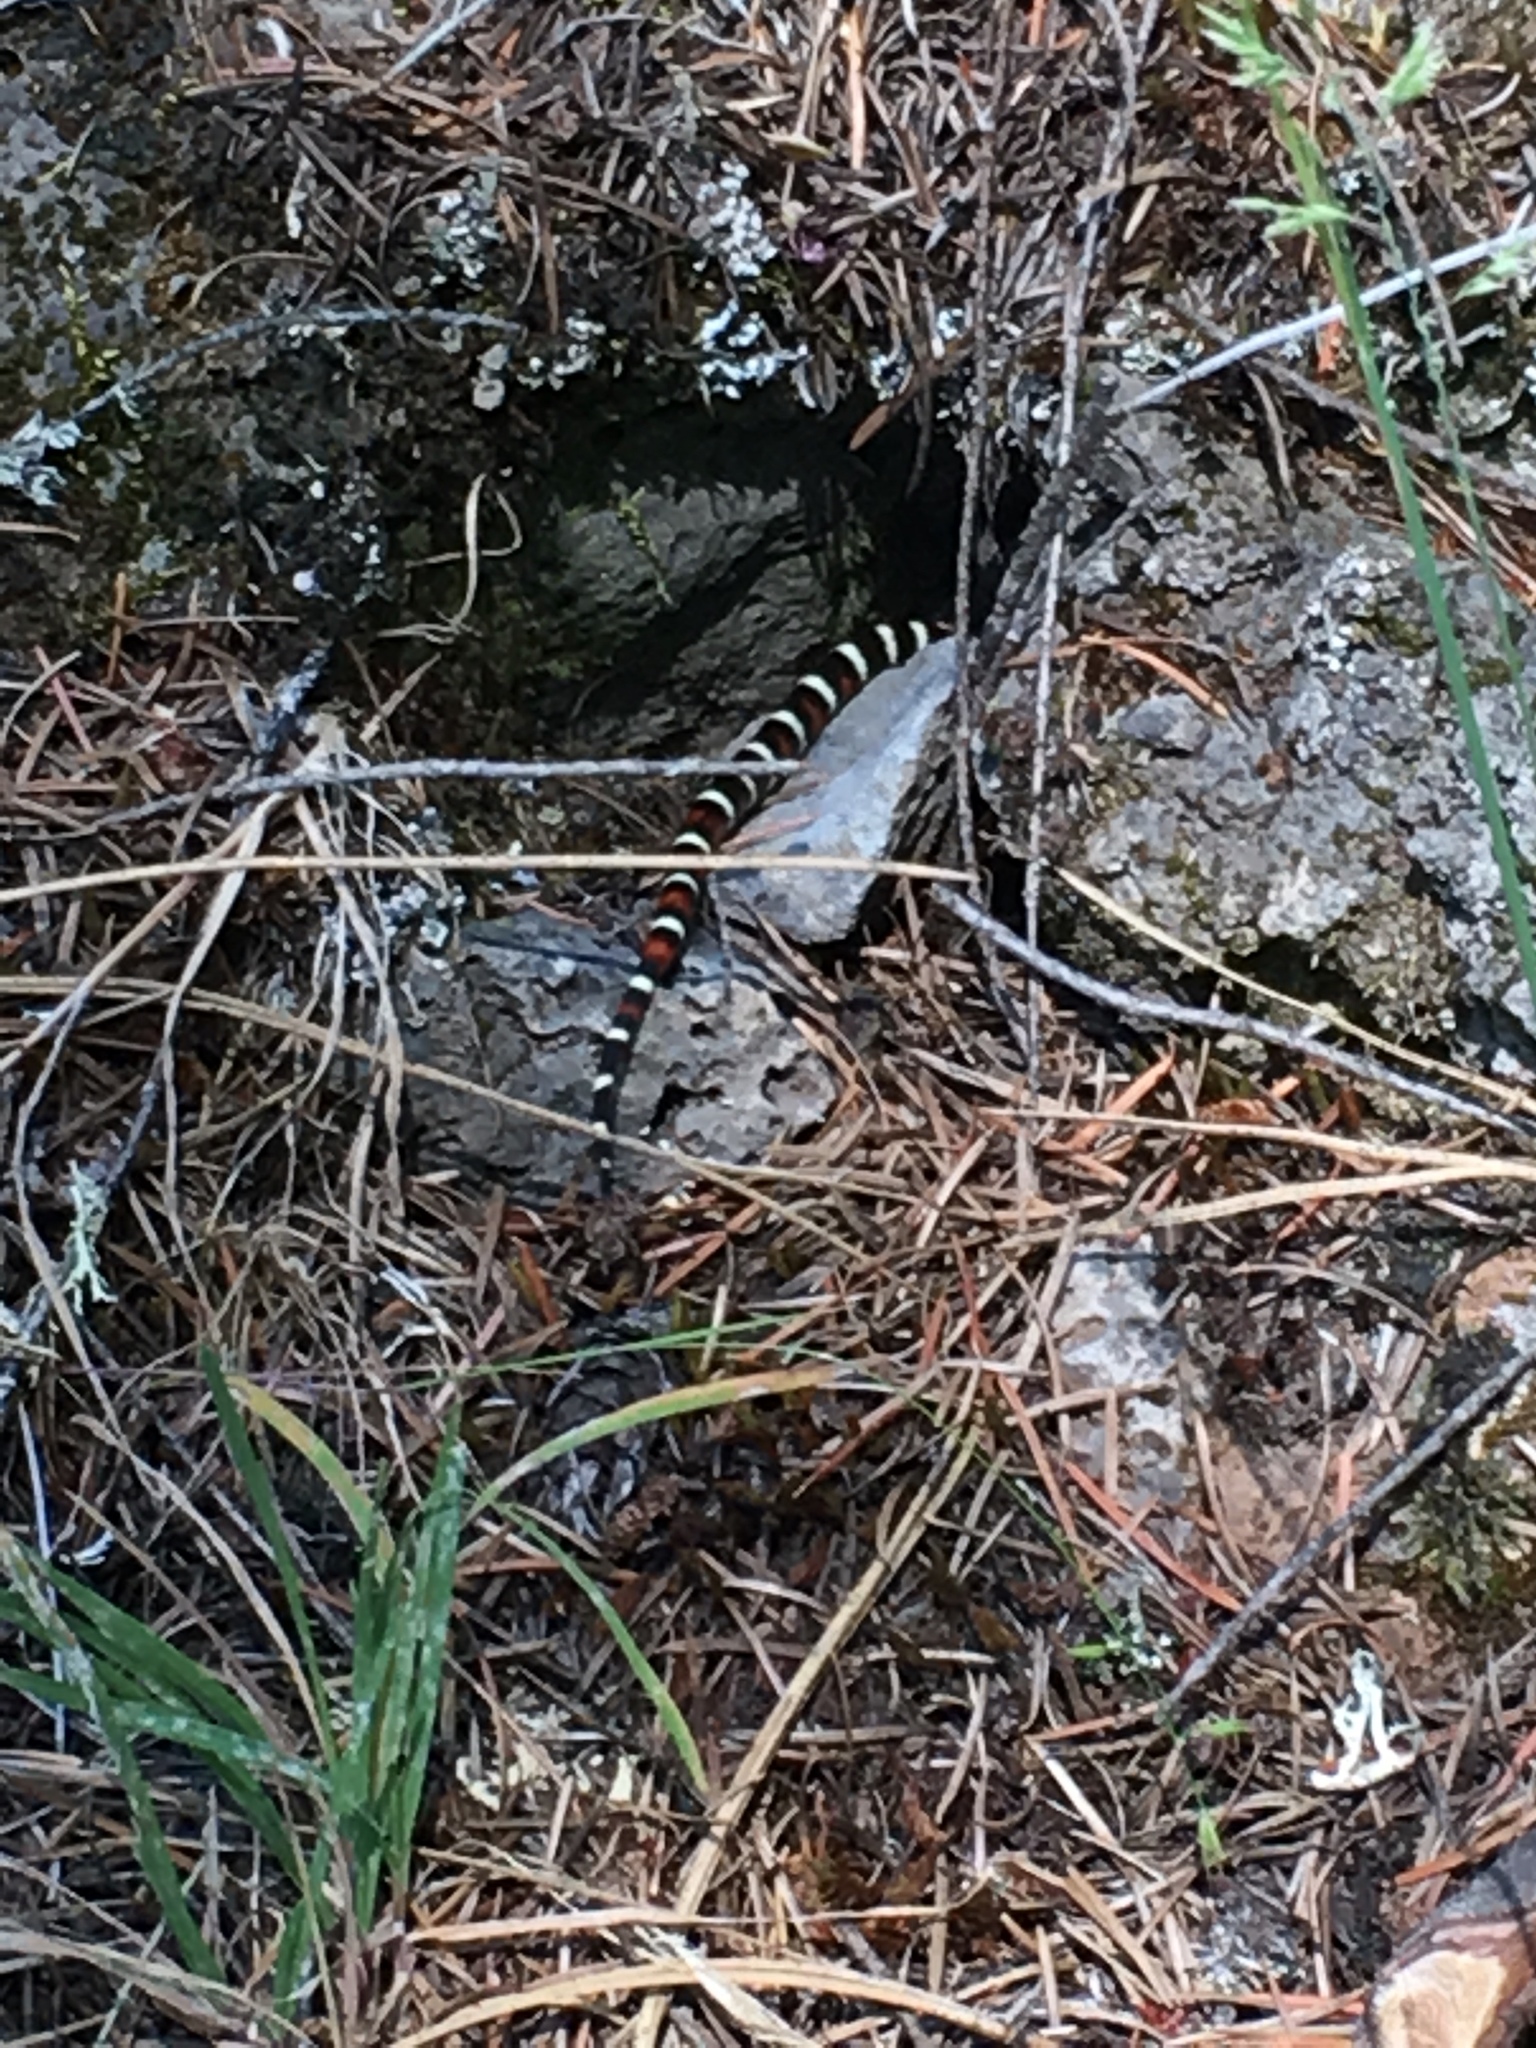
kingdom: Animalia
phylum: Chordata
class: Squamata
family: Colubridae
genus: Lampropeltis
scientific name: Lampropeltis zonata
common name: California mountain kingsnake
